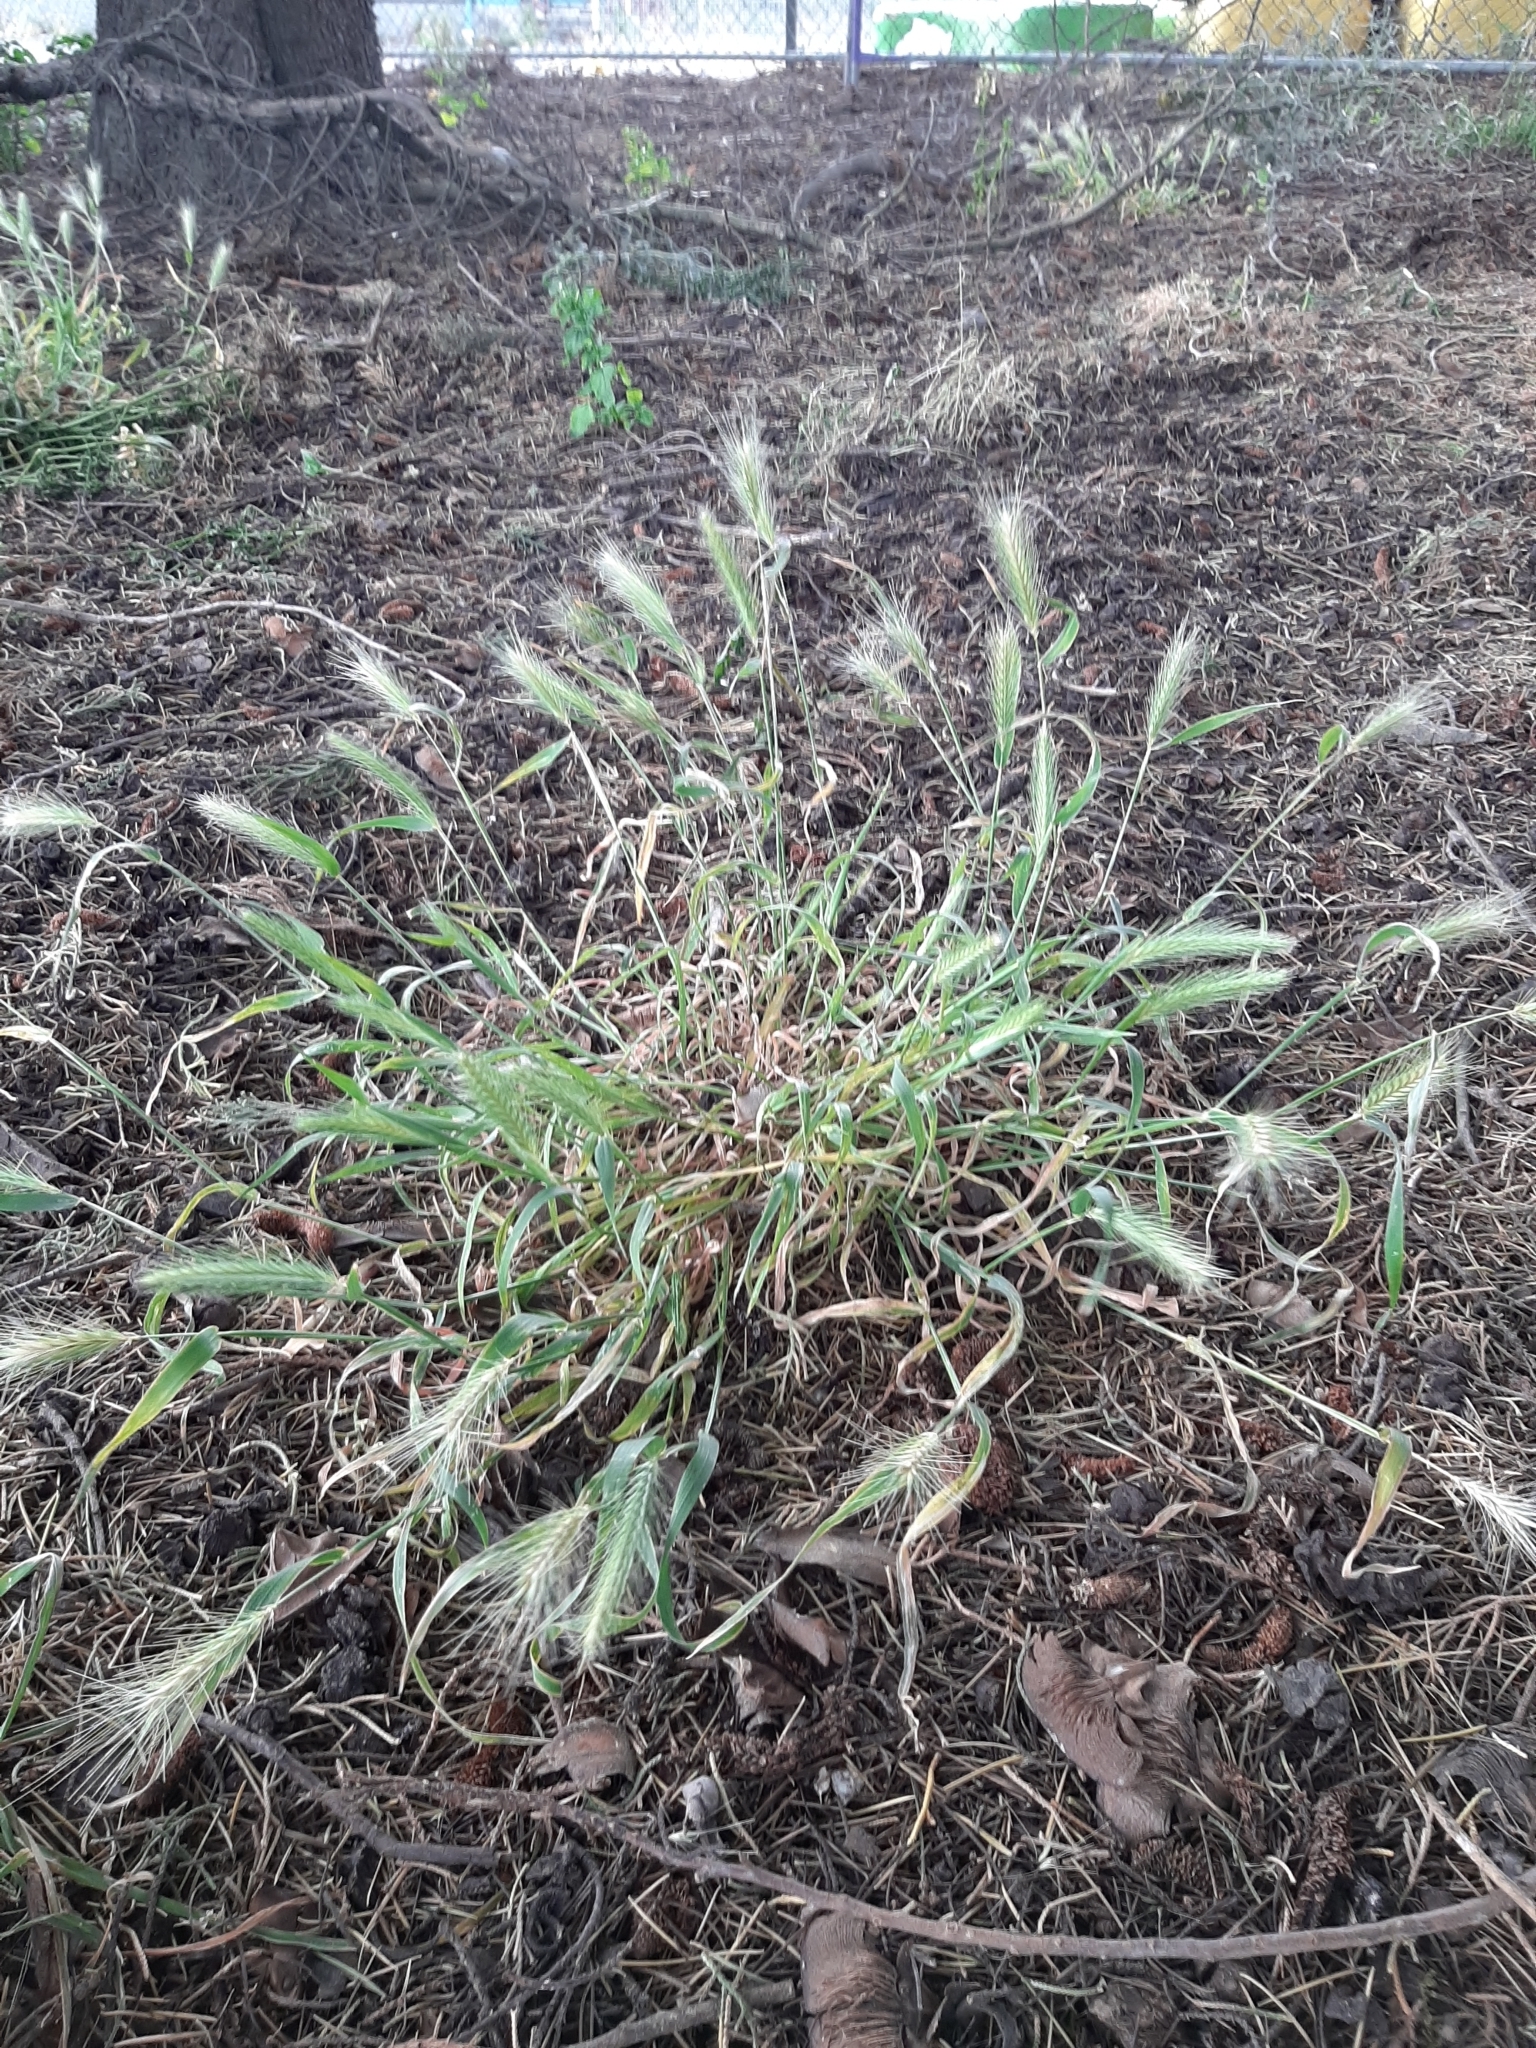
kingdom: Plantae
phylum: Tracheophyta
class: Liliopsida
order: Poales
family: Poaceae
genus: Hordeum
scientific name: Hordeum murinum
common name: Wall barley
